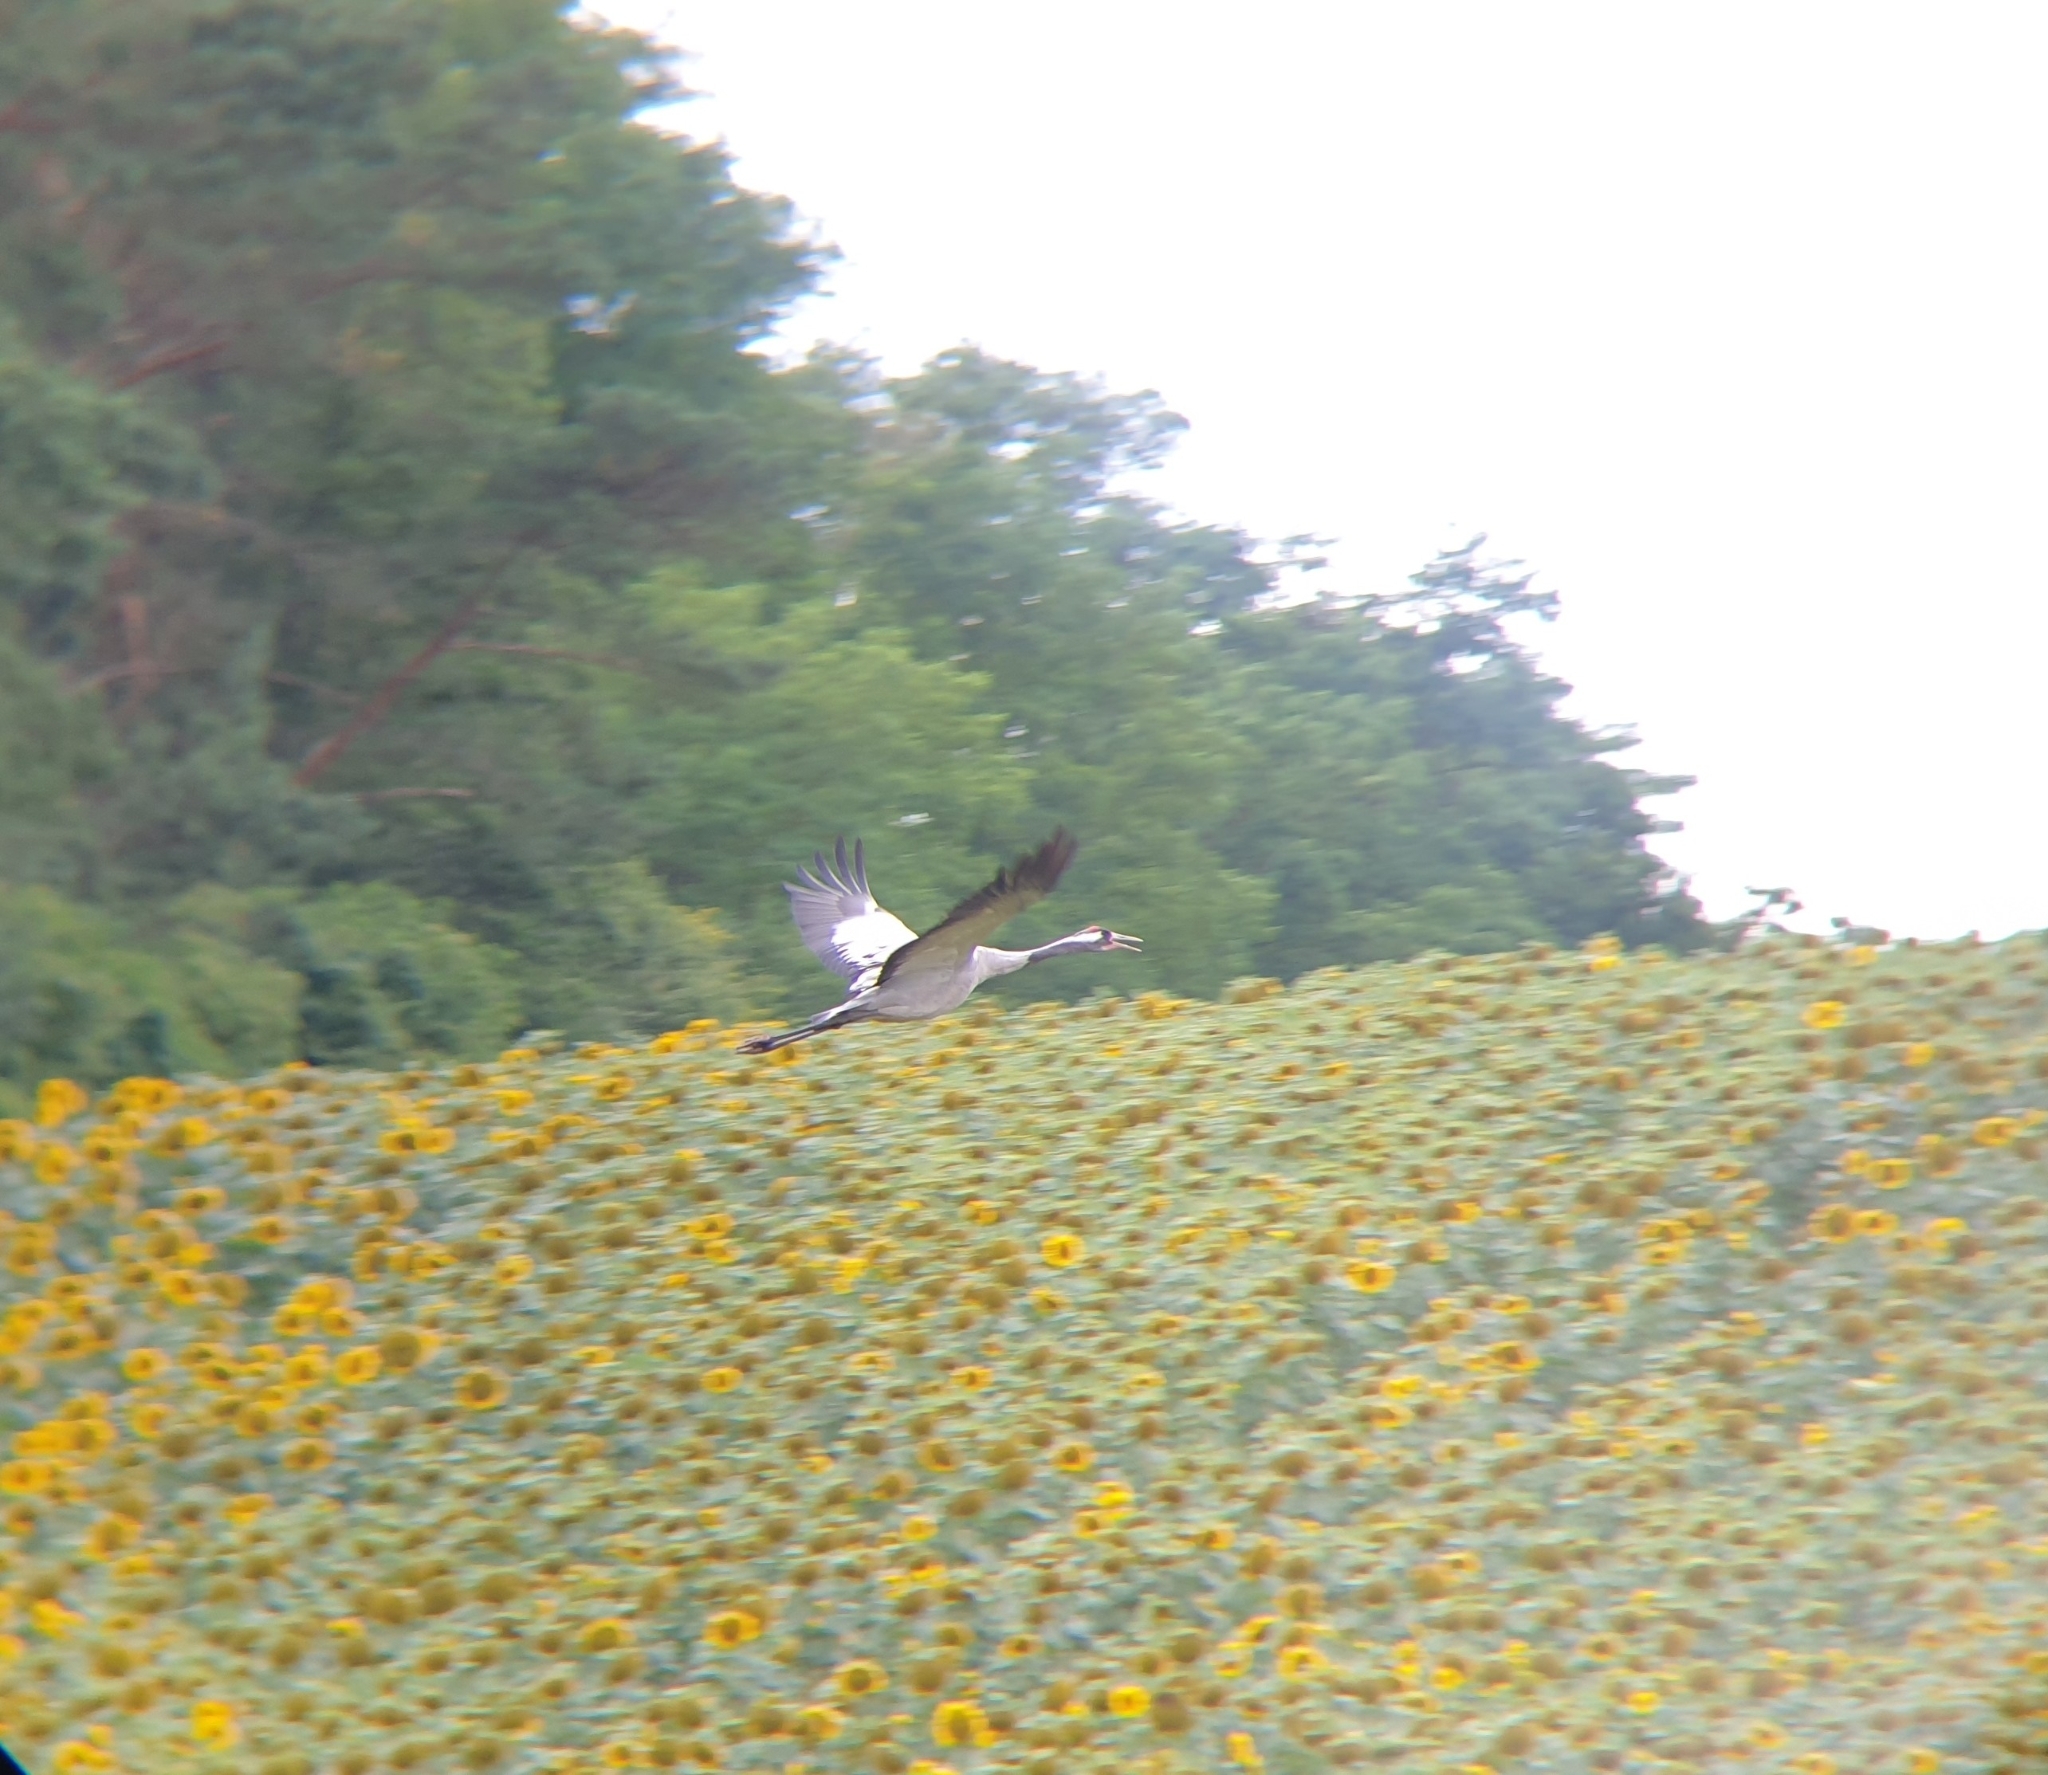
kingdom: Animalia
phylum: Chordata
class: Aves
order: Gruiformes
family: Gruidae
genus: Grus
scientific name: Grus grus
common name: Common crane
